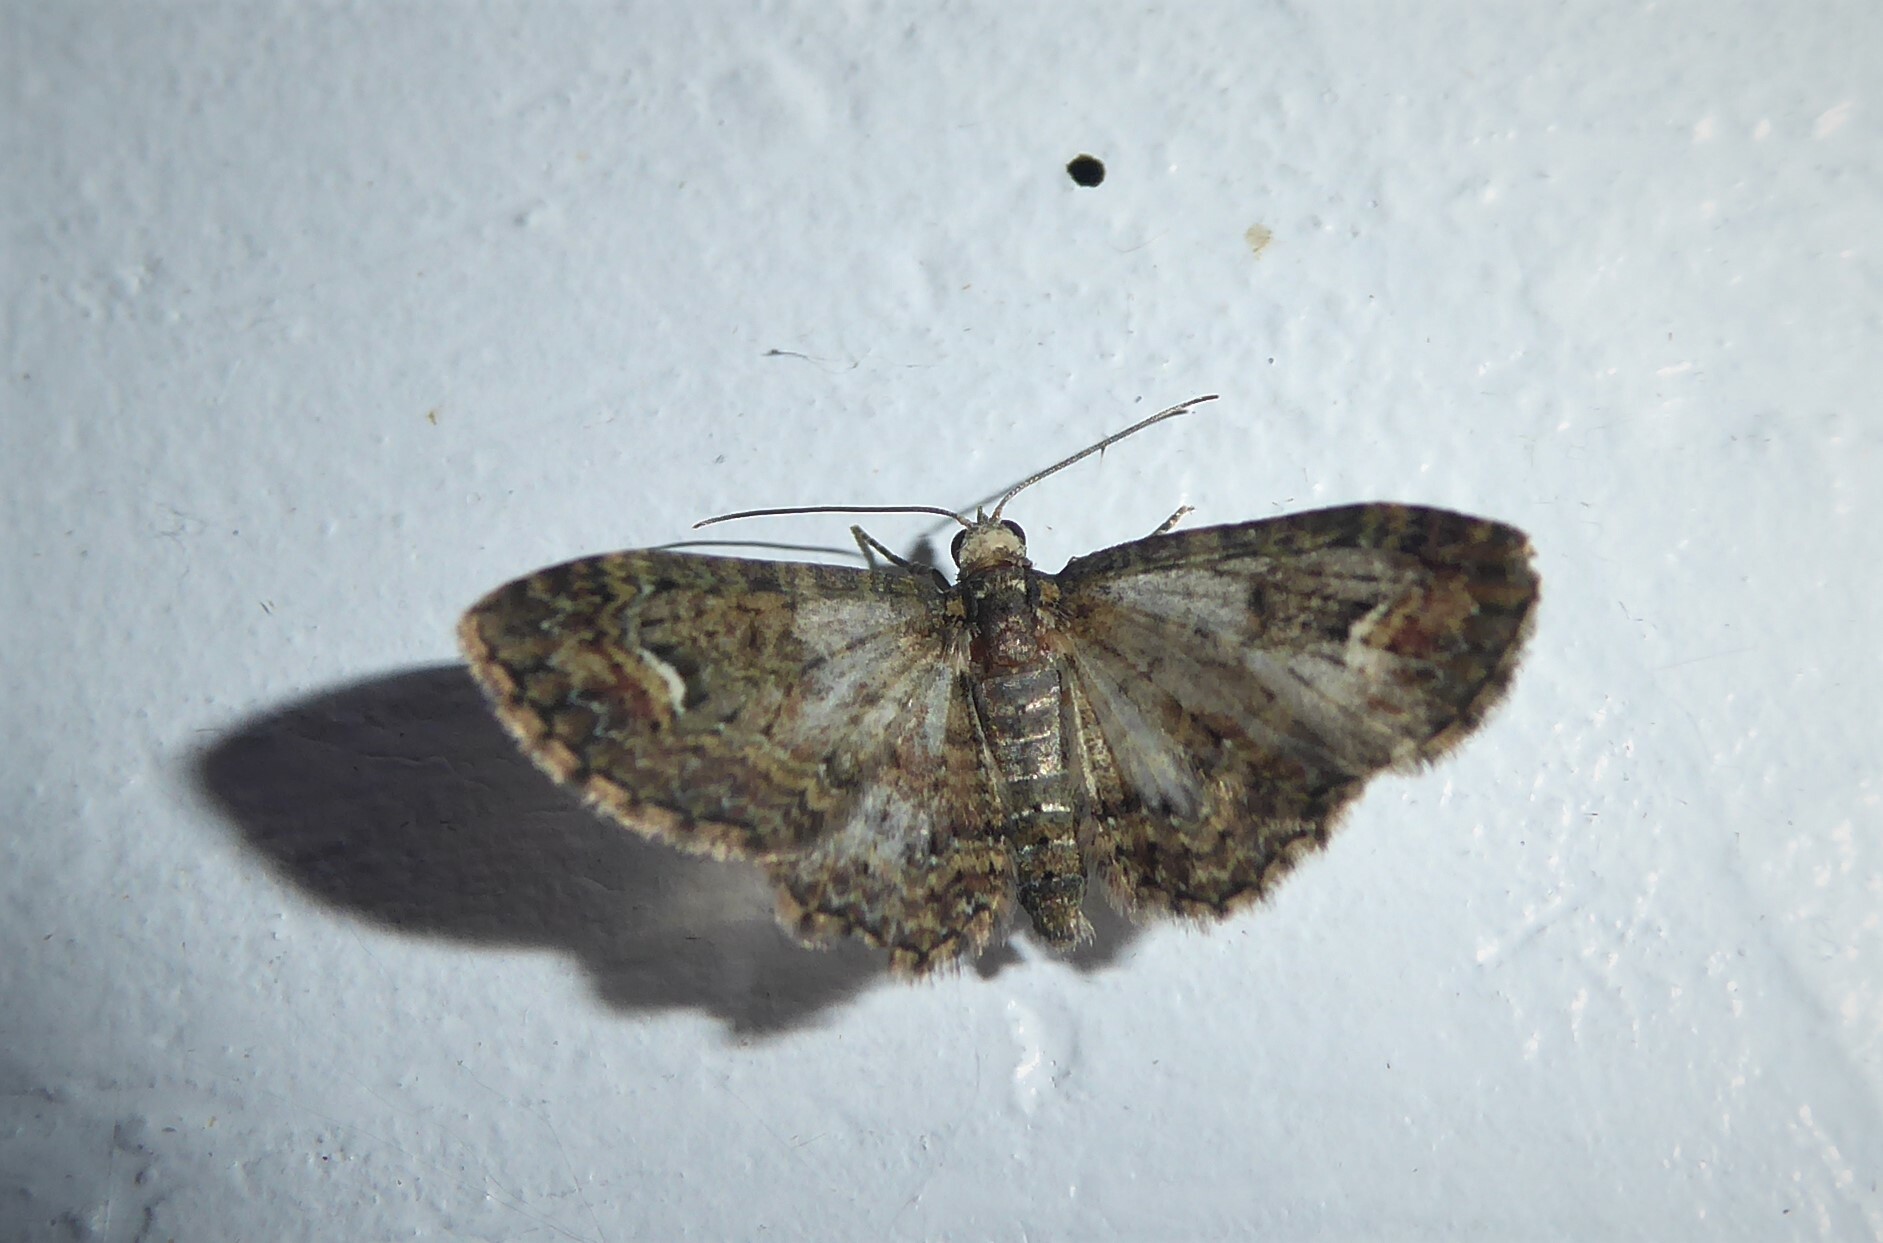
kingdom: Animalia
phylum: Arthropoda
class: Insecta
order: Lepidoptera
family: Geometridae
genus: Pasiphilodes
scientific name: Pasiphilodes testulata
